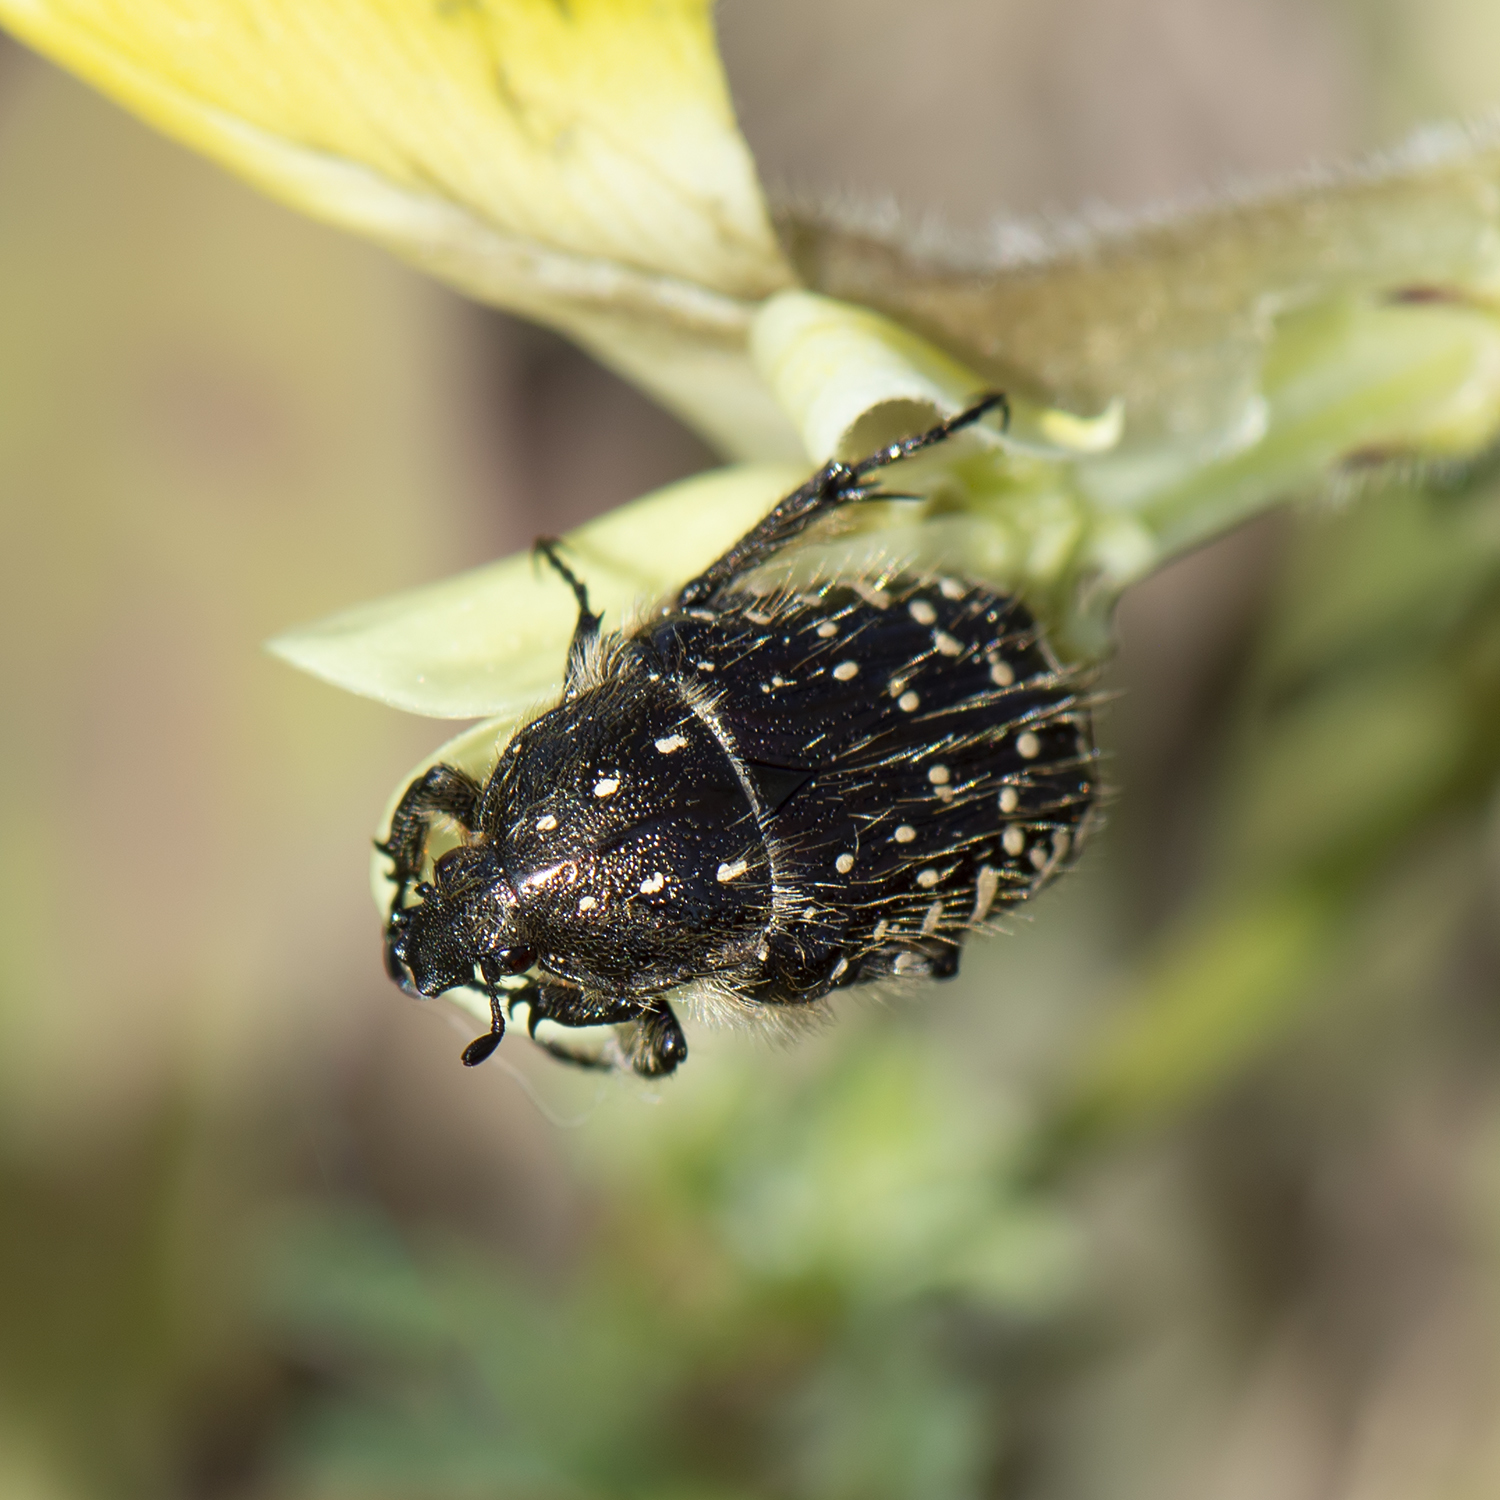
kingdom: Animalia
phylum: Arthropoda
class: Insecta
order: Coleoptera
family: Scarabaeidae
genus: Oxythyrea
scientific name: Oxythyrea funesta
